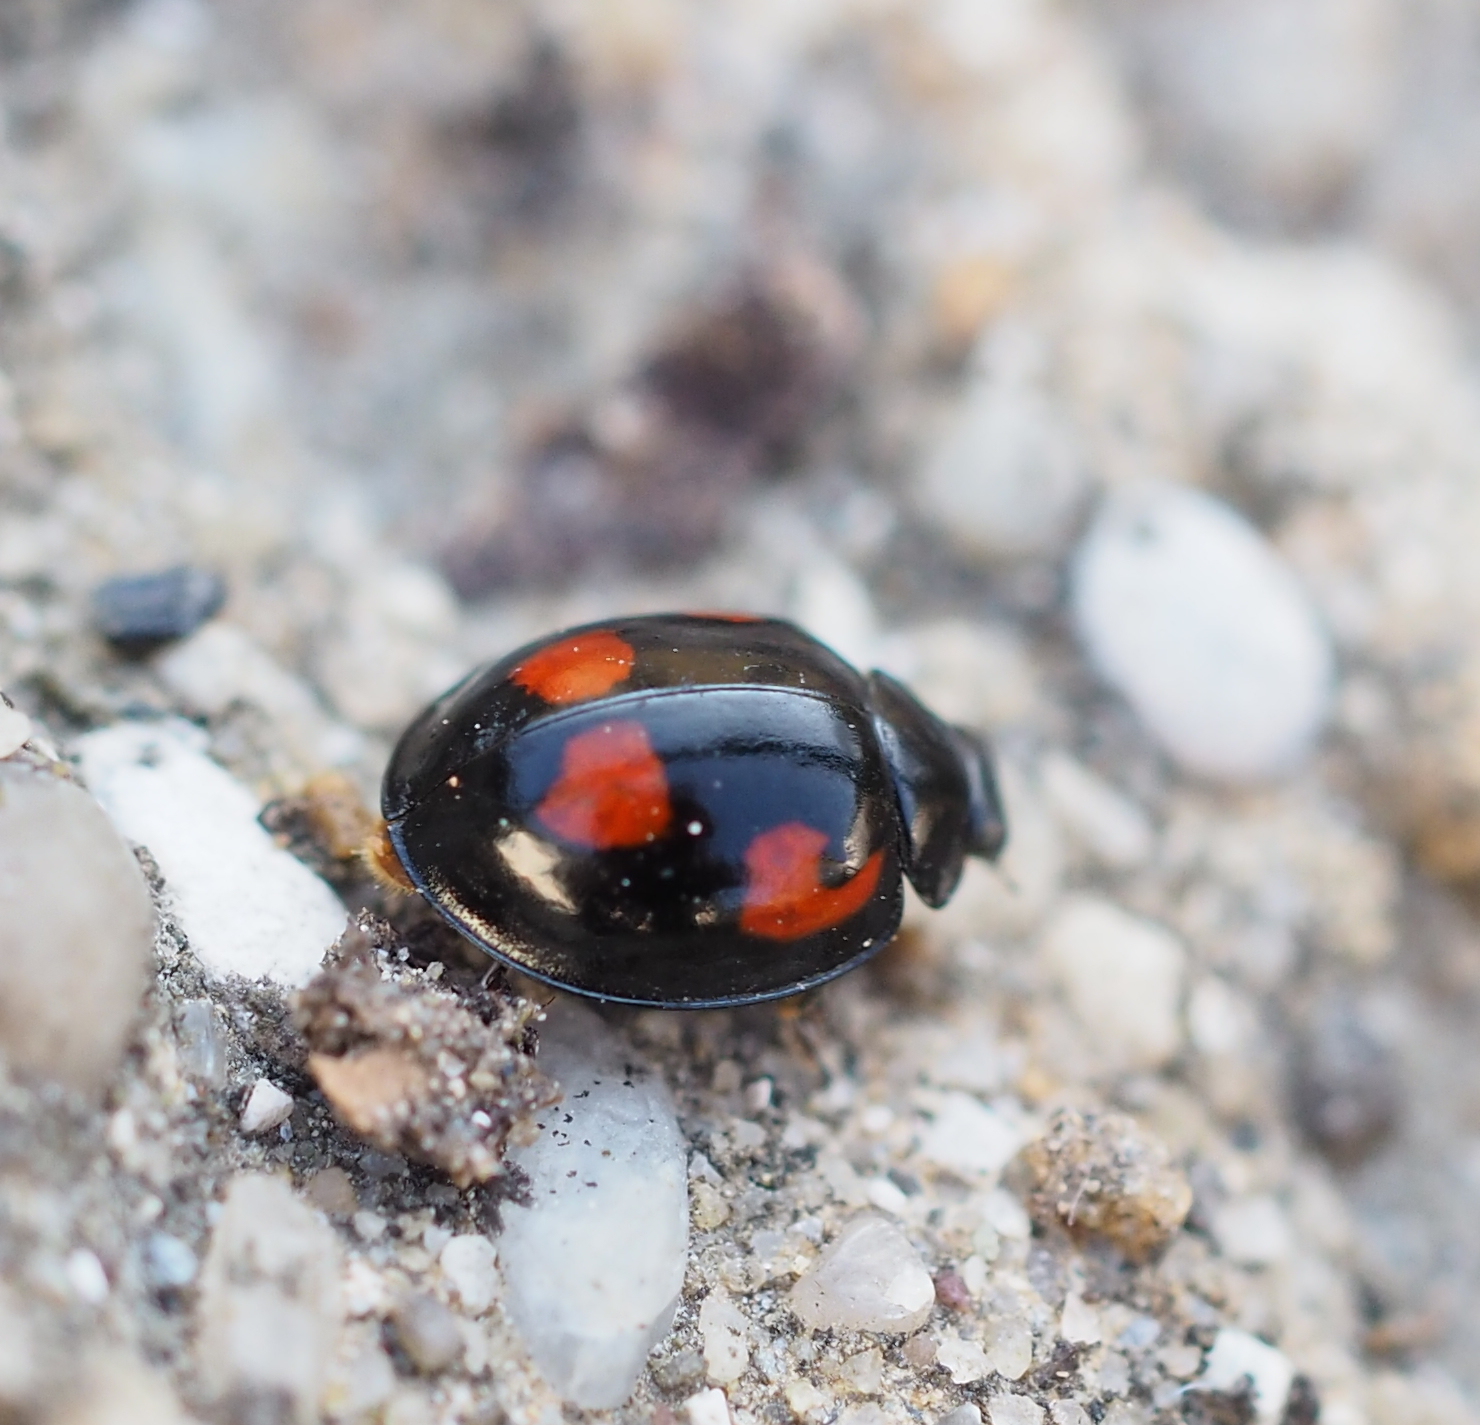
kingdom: Animalia
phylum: Arthropoda
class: Insecta
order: Coleoptera
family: Coccinellidae
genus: Brumus
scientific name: Brumus quadripustulatus
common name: Ladybird beetle
